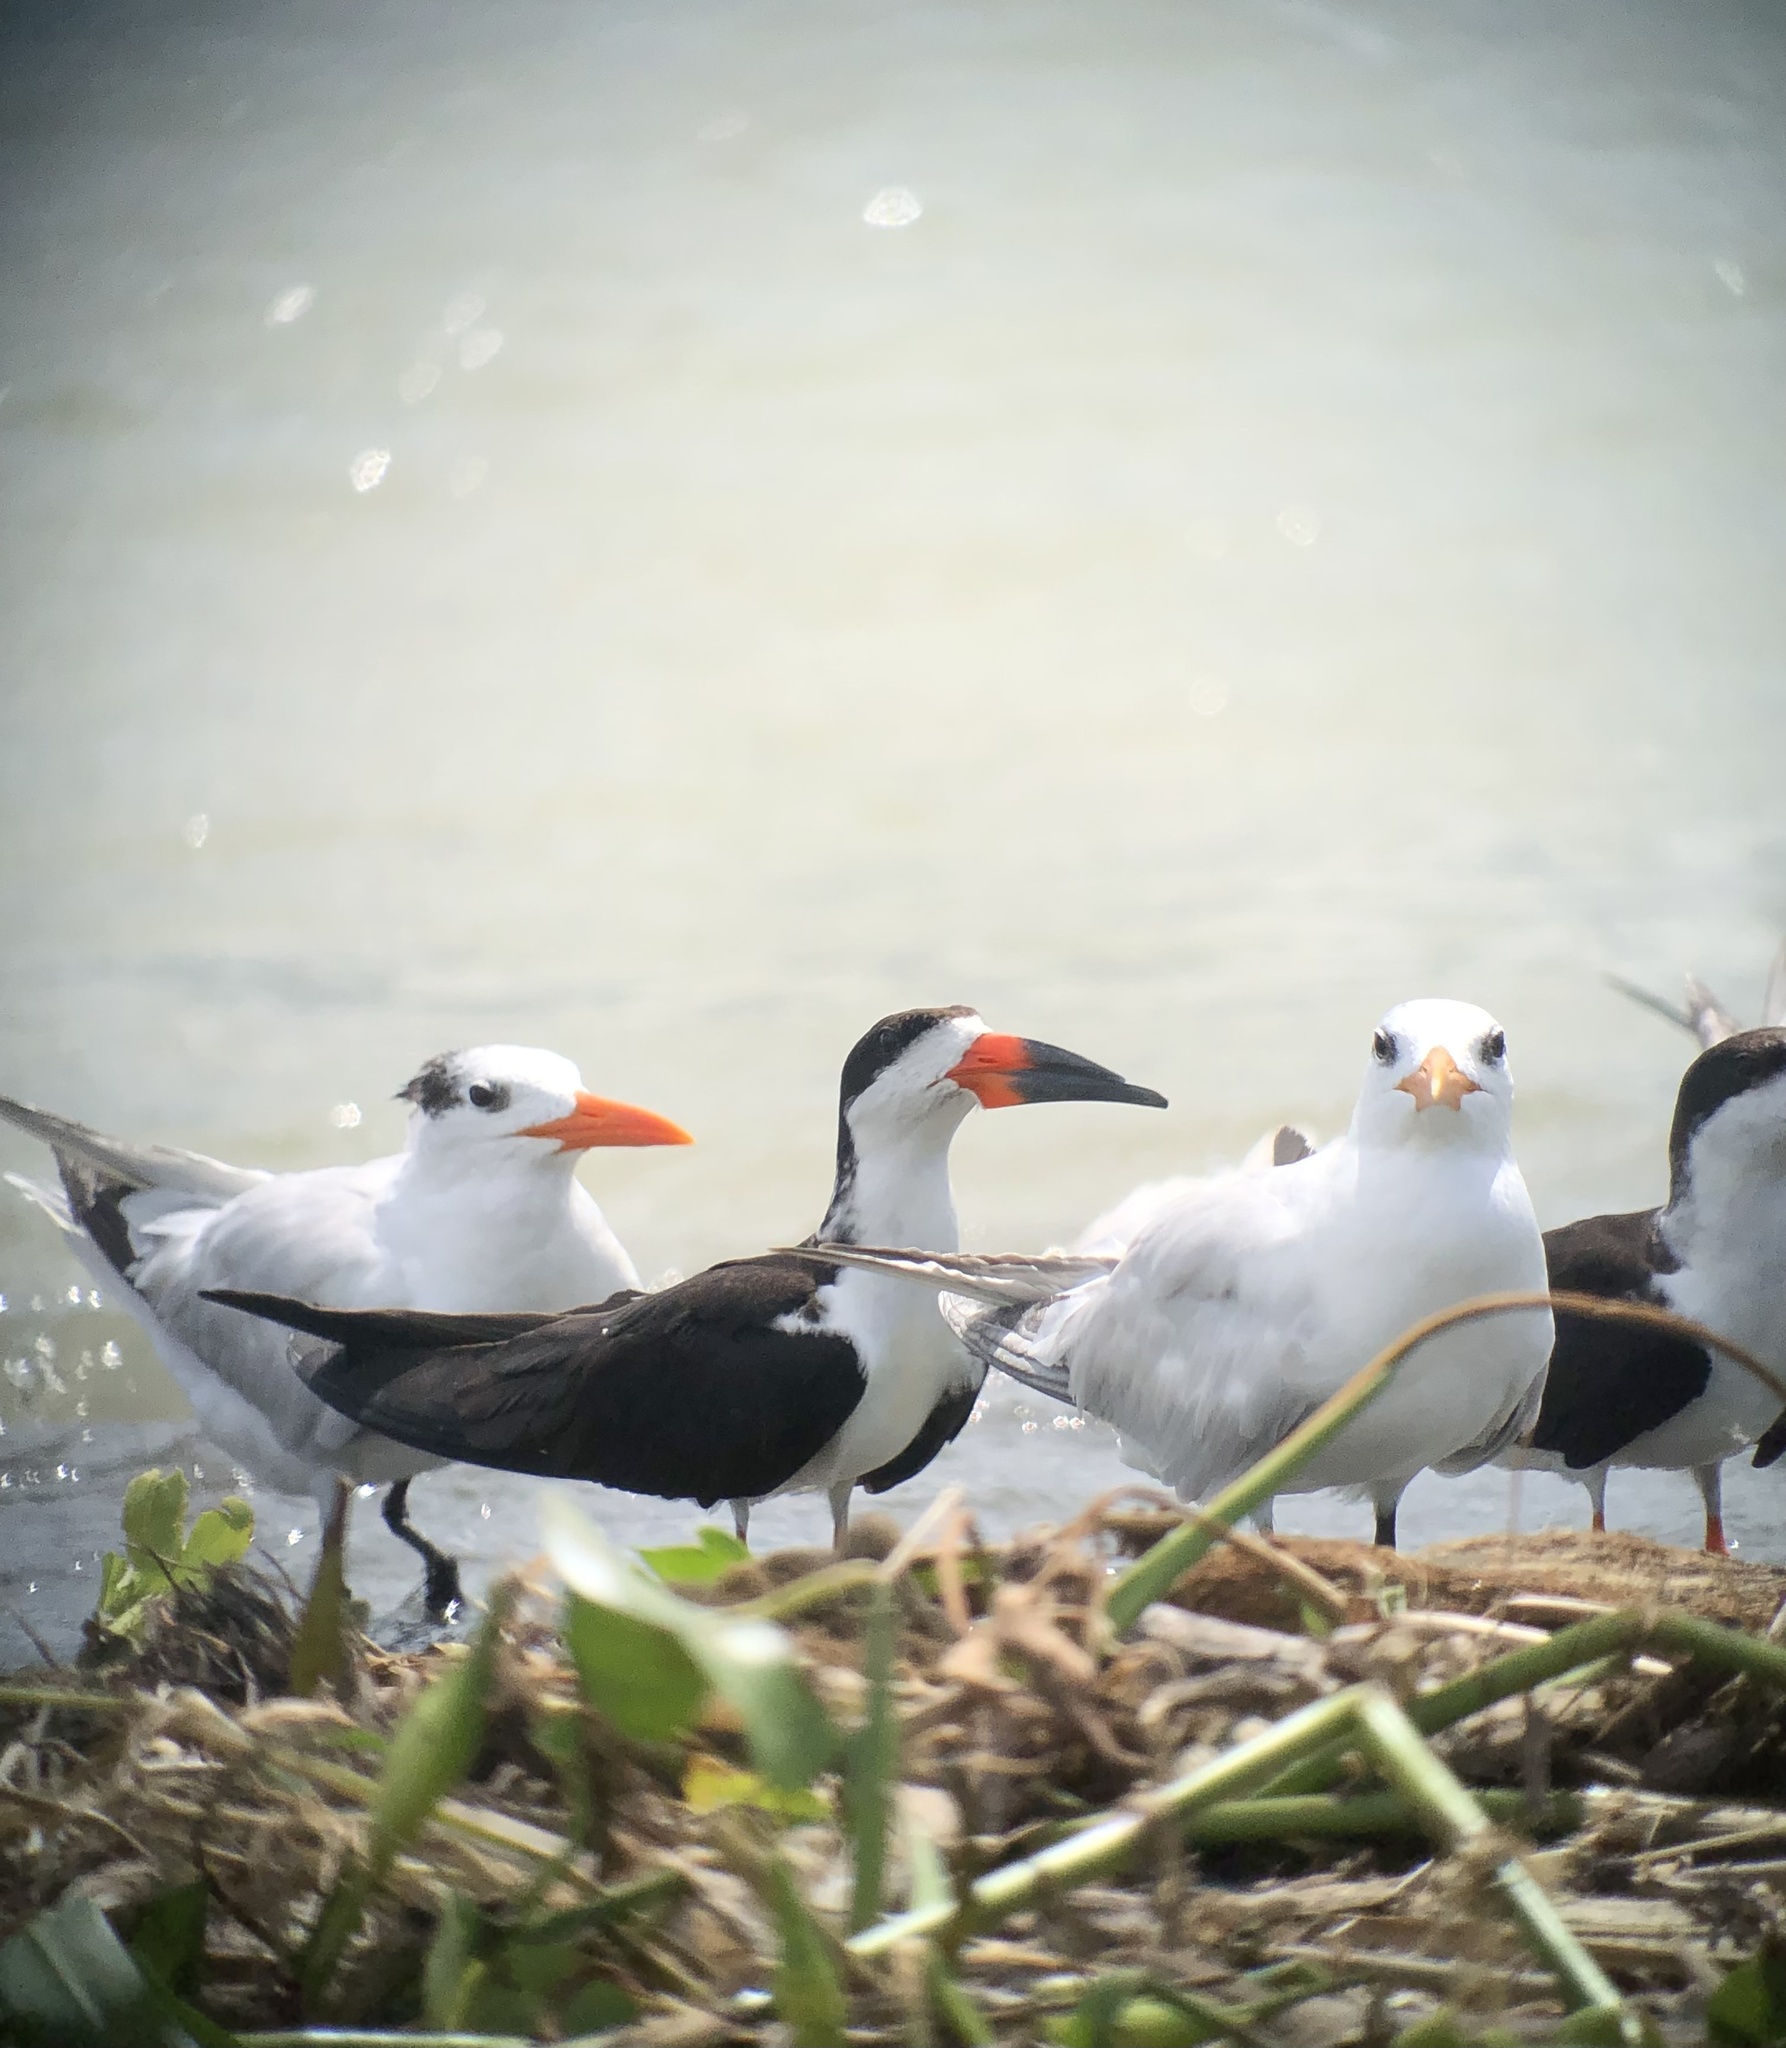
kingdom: Animalia
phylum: Chordata
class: Aves
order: Charadriiformes
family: Laridae
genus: Rynchops
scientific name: Rynchops niger
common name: Black skimmer
